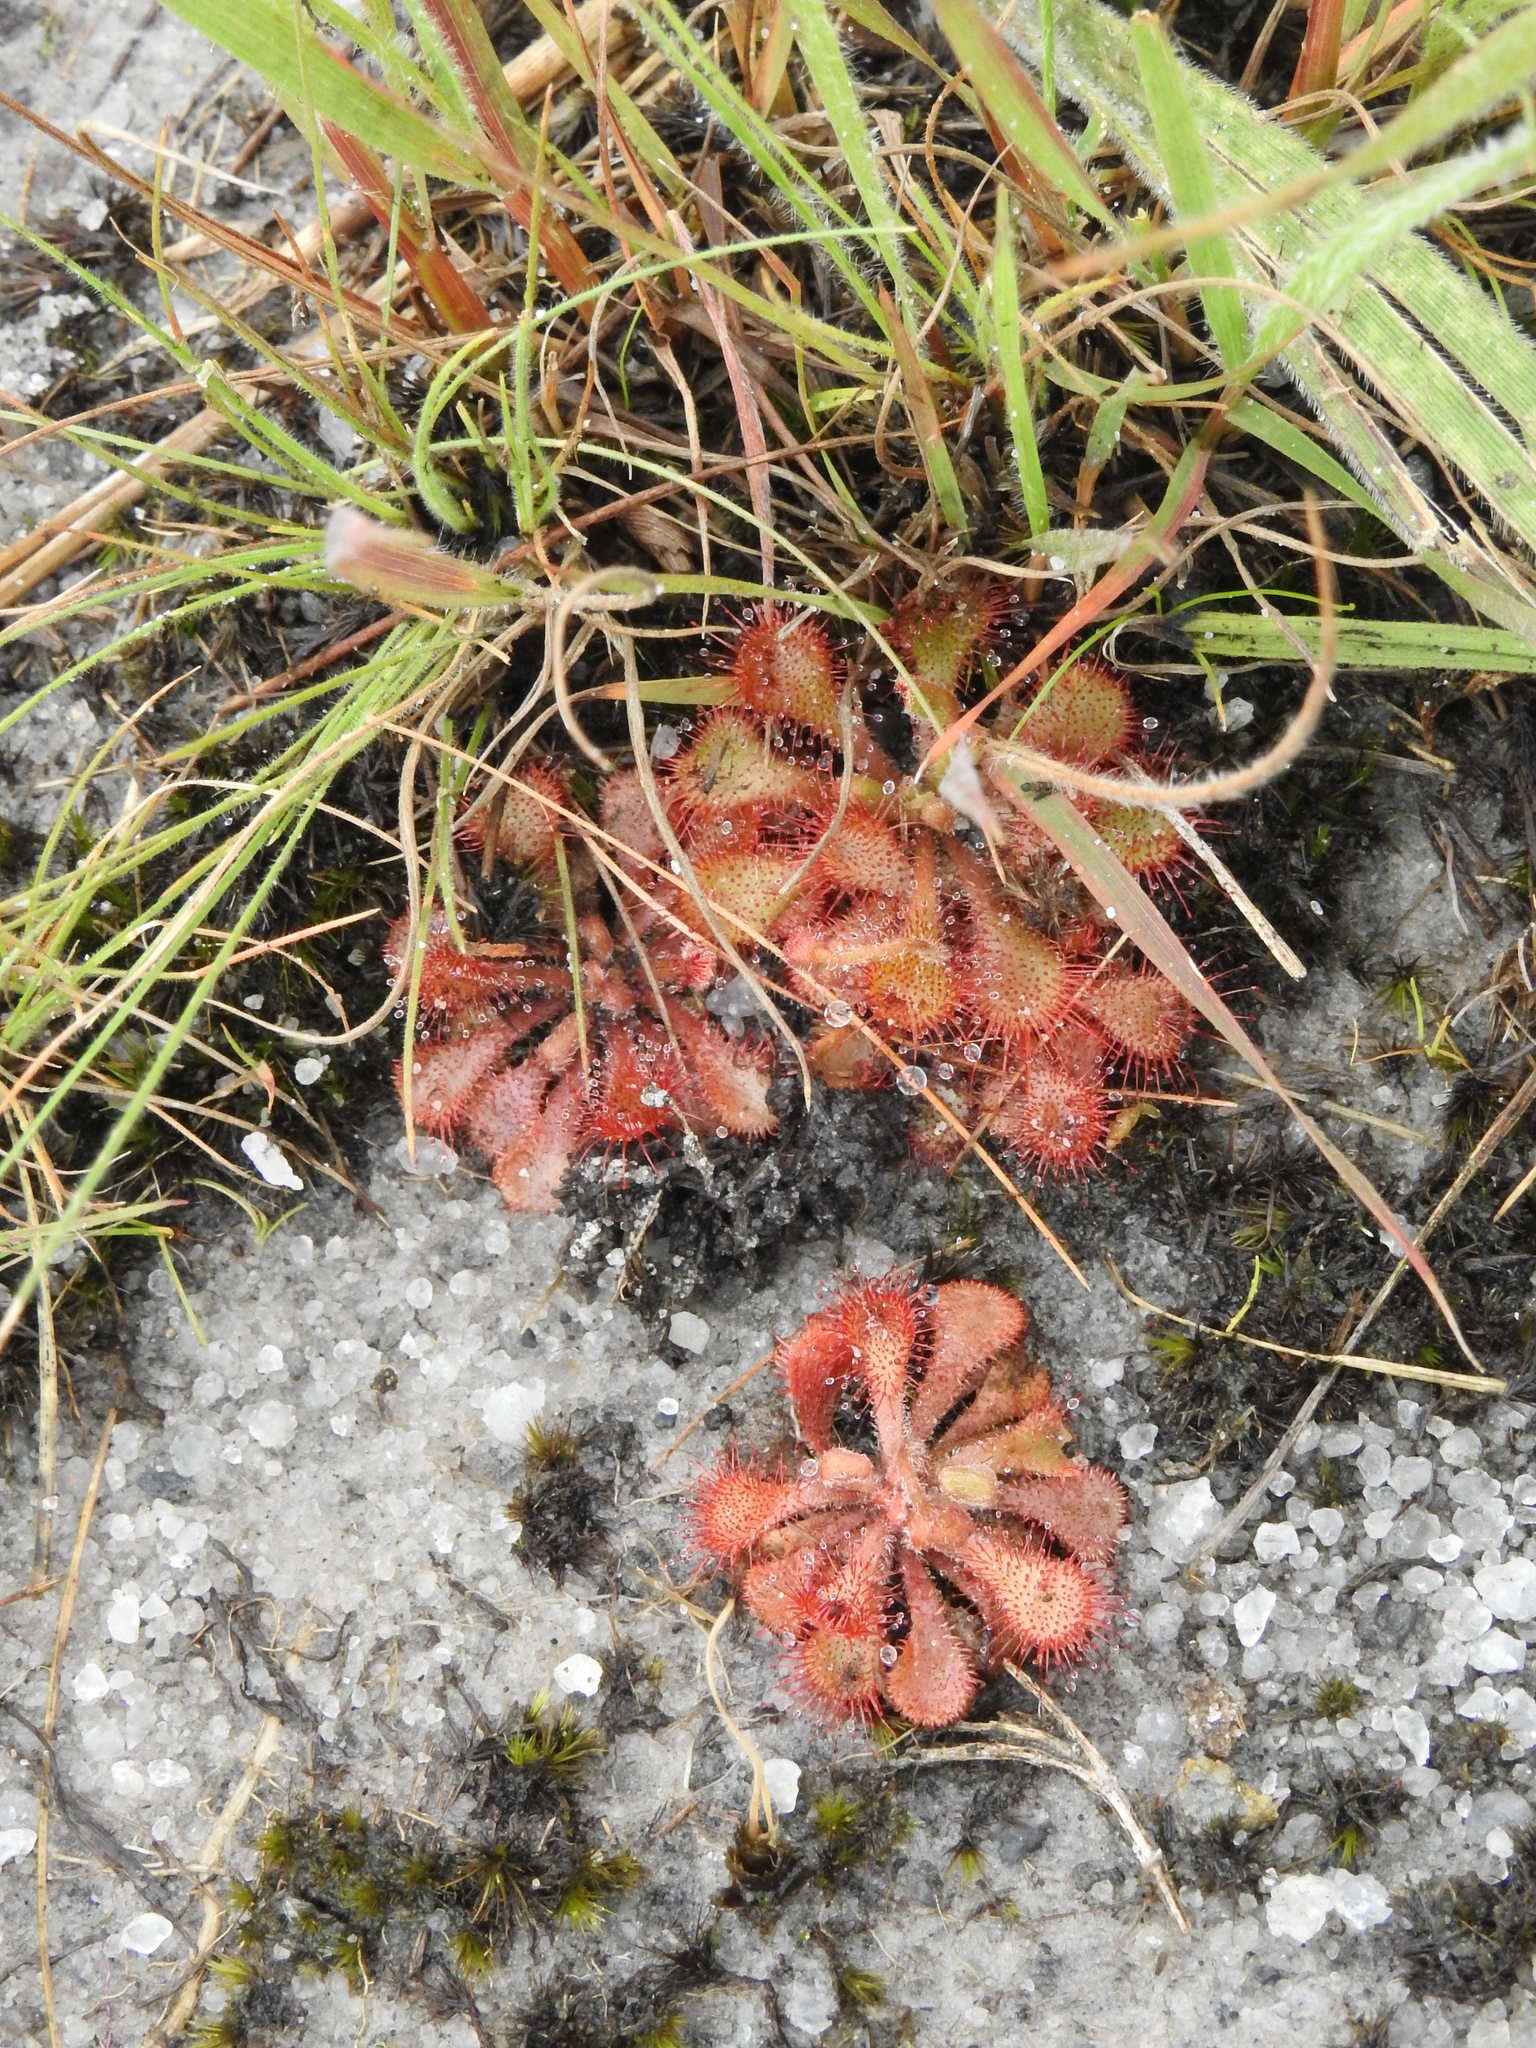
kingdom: Plantae
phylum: Tracheophyta
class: Magnoliopsida
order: Caryophyllales
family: Droseraceae
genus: Drosera
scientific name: Drosera dielsiana
